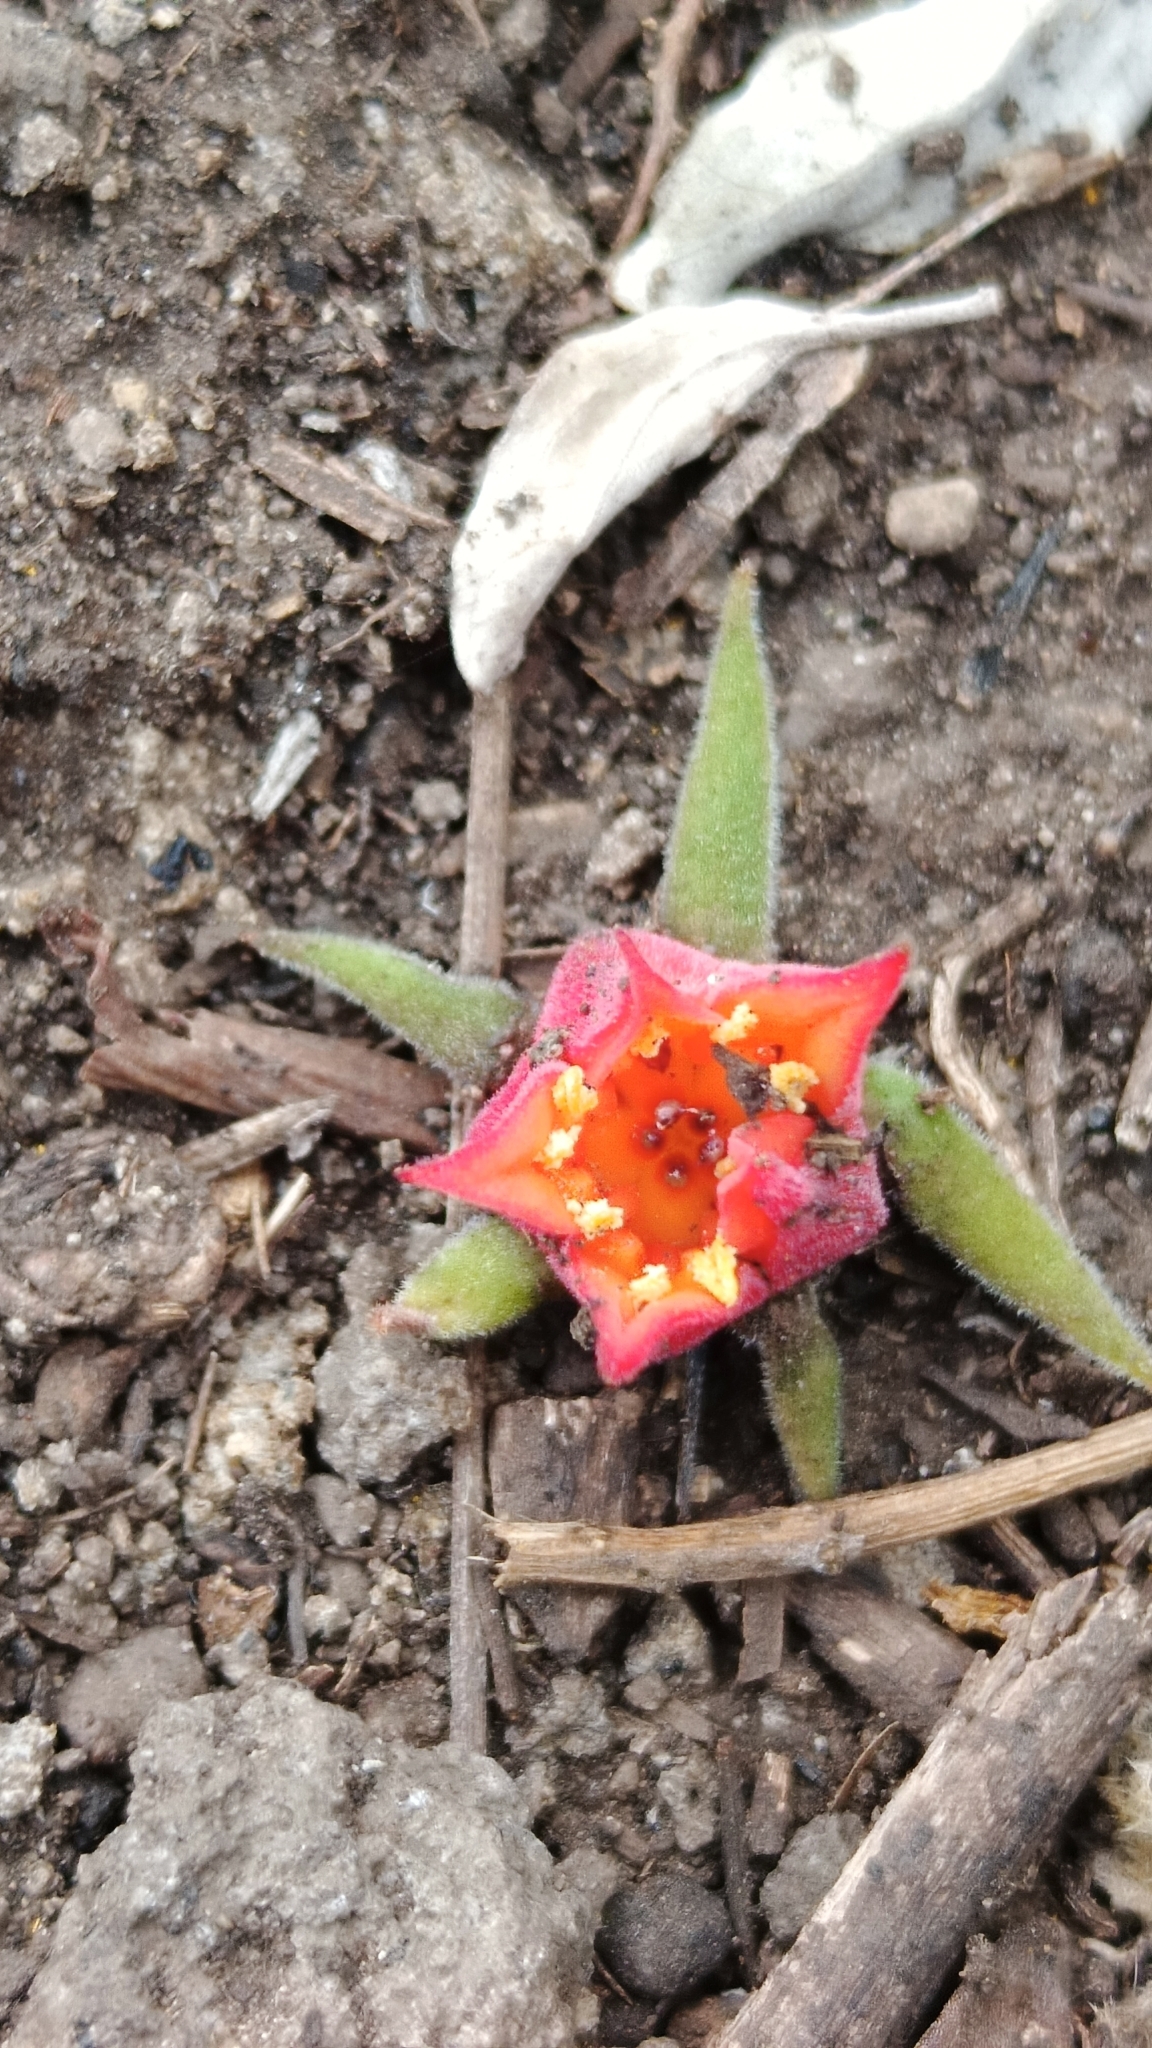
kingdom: Plantae
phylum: Tracheophyta
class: Magnoliopsida
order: Saxifragales
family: Crassulaceae
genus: Echeveria
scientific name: Echeveria coccinea
